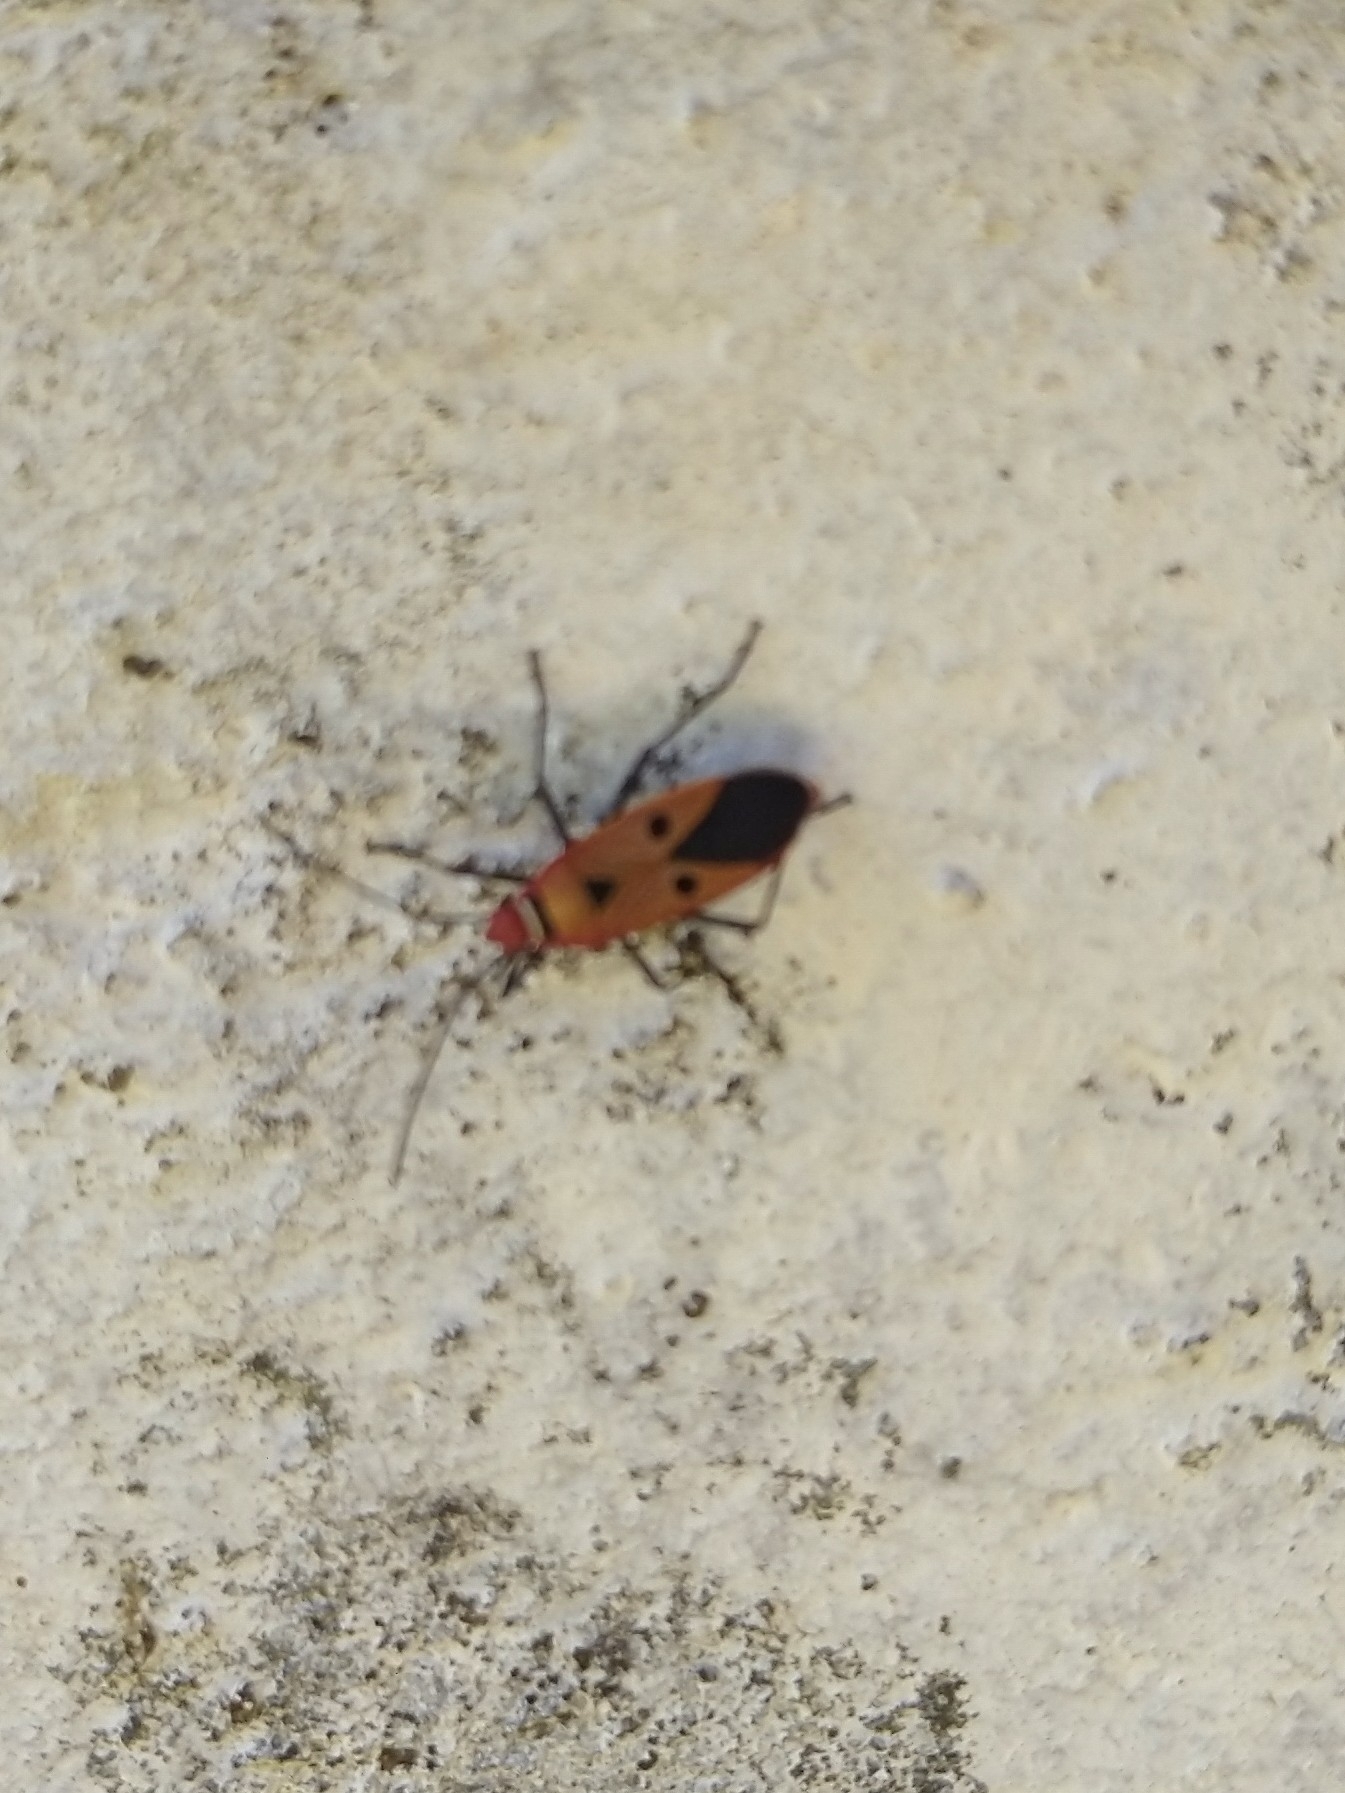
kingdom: Animalia
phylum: Arthropoda
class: Insecta
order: Hemiptera
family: Pyrrhocoridae
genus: Dysdercus
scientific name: Dysdercus cingulatus
